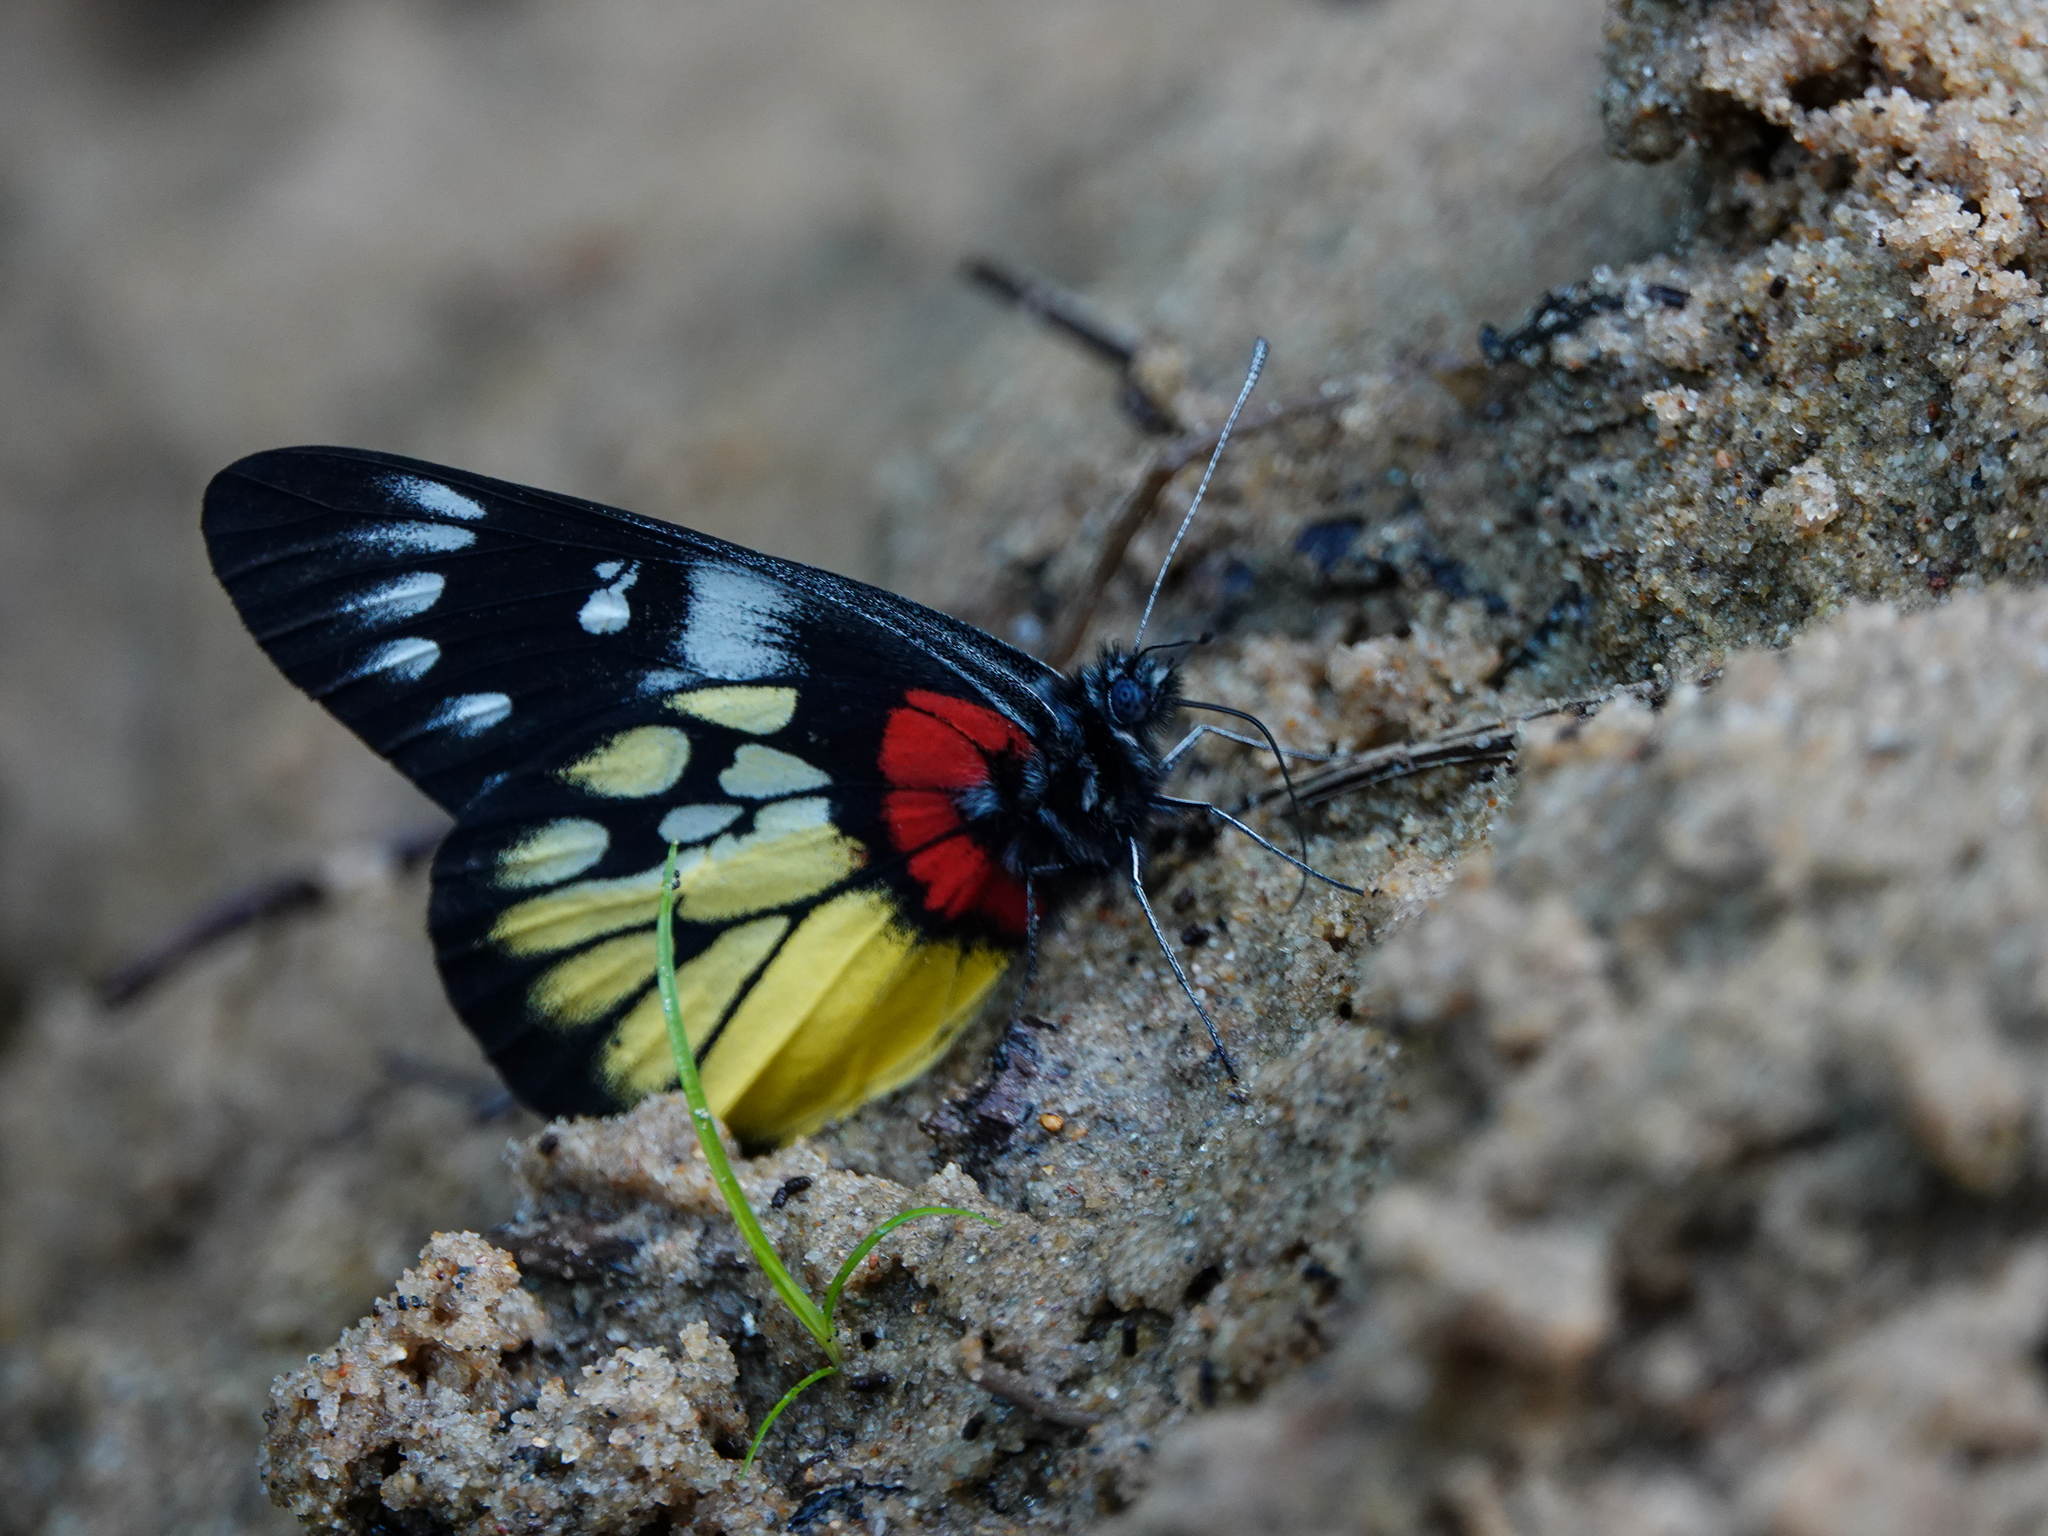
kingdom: Animalia
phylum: Arthropoda
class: Insecta
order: Lepidoptera
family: Pieridae
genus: Delias
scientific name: Delias pasithoe
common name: Red-base jezebel
